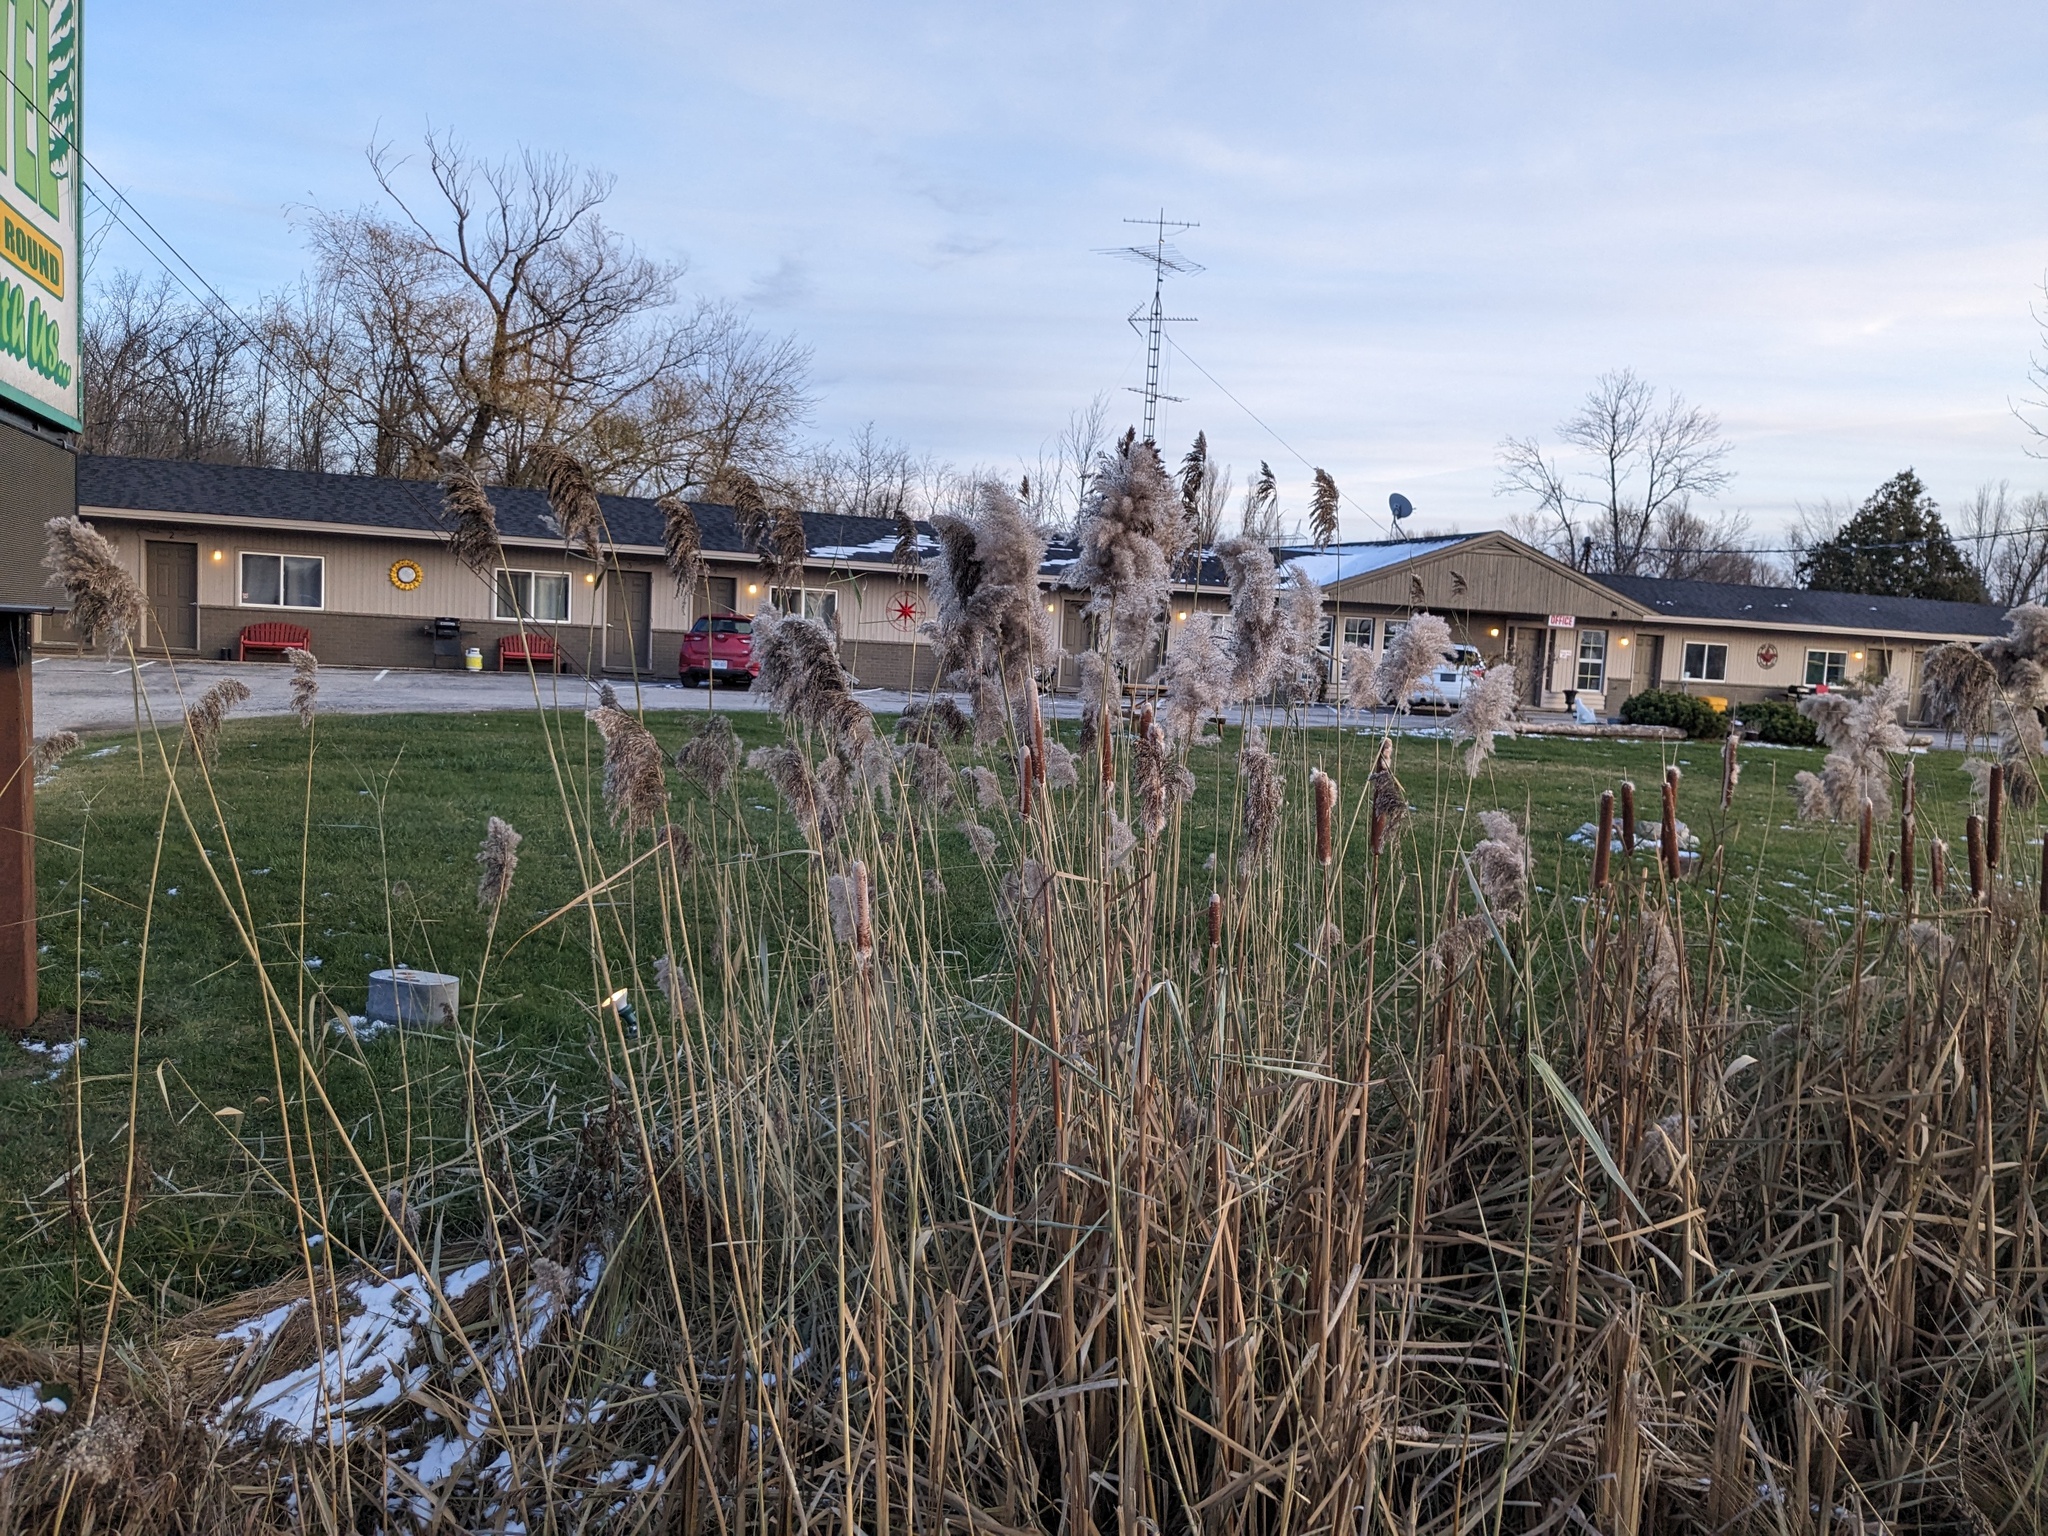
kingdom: Plantae
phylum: Tracheophyta
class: Liliopsida
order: Poales
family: Poaceae
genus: Phragmites
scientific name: Phragmites australis
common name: Common reed
